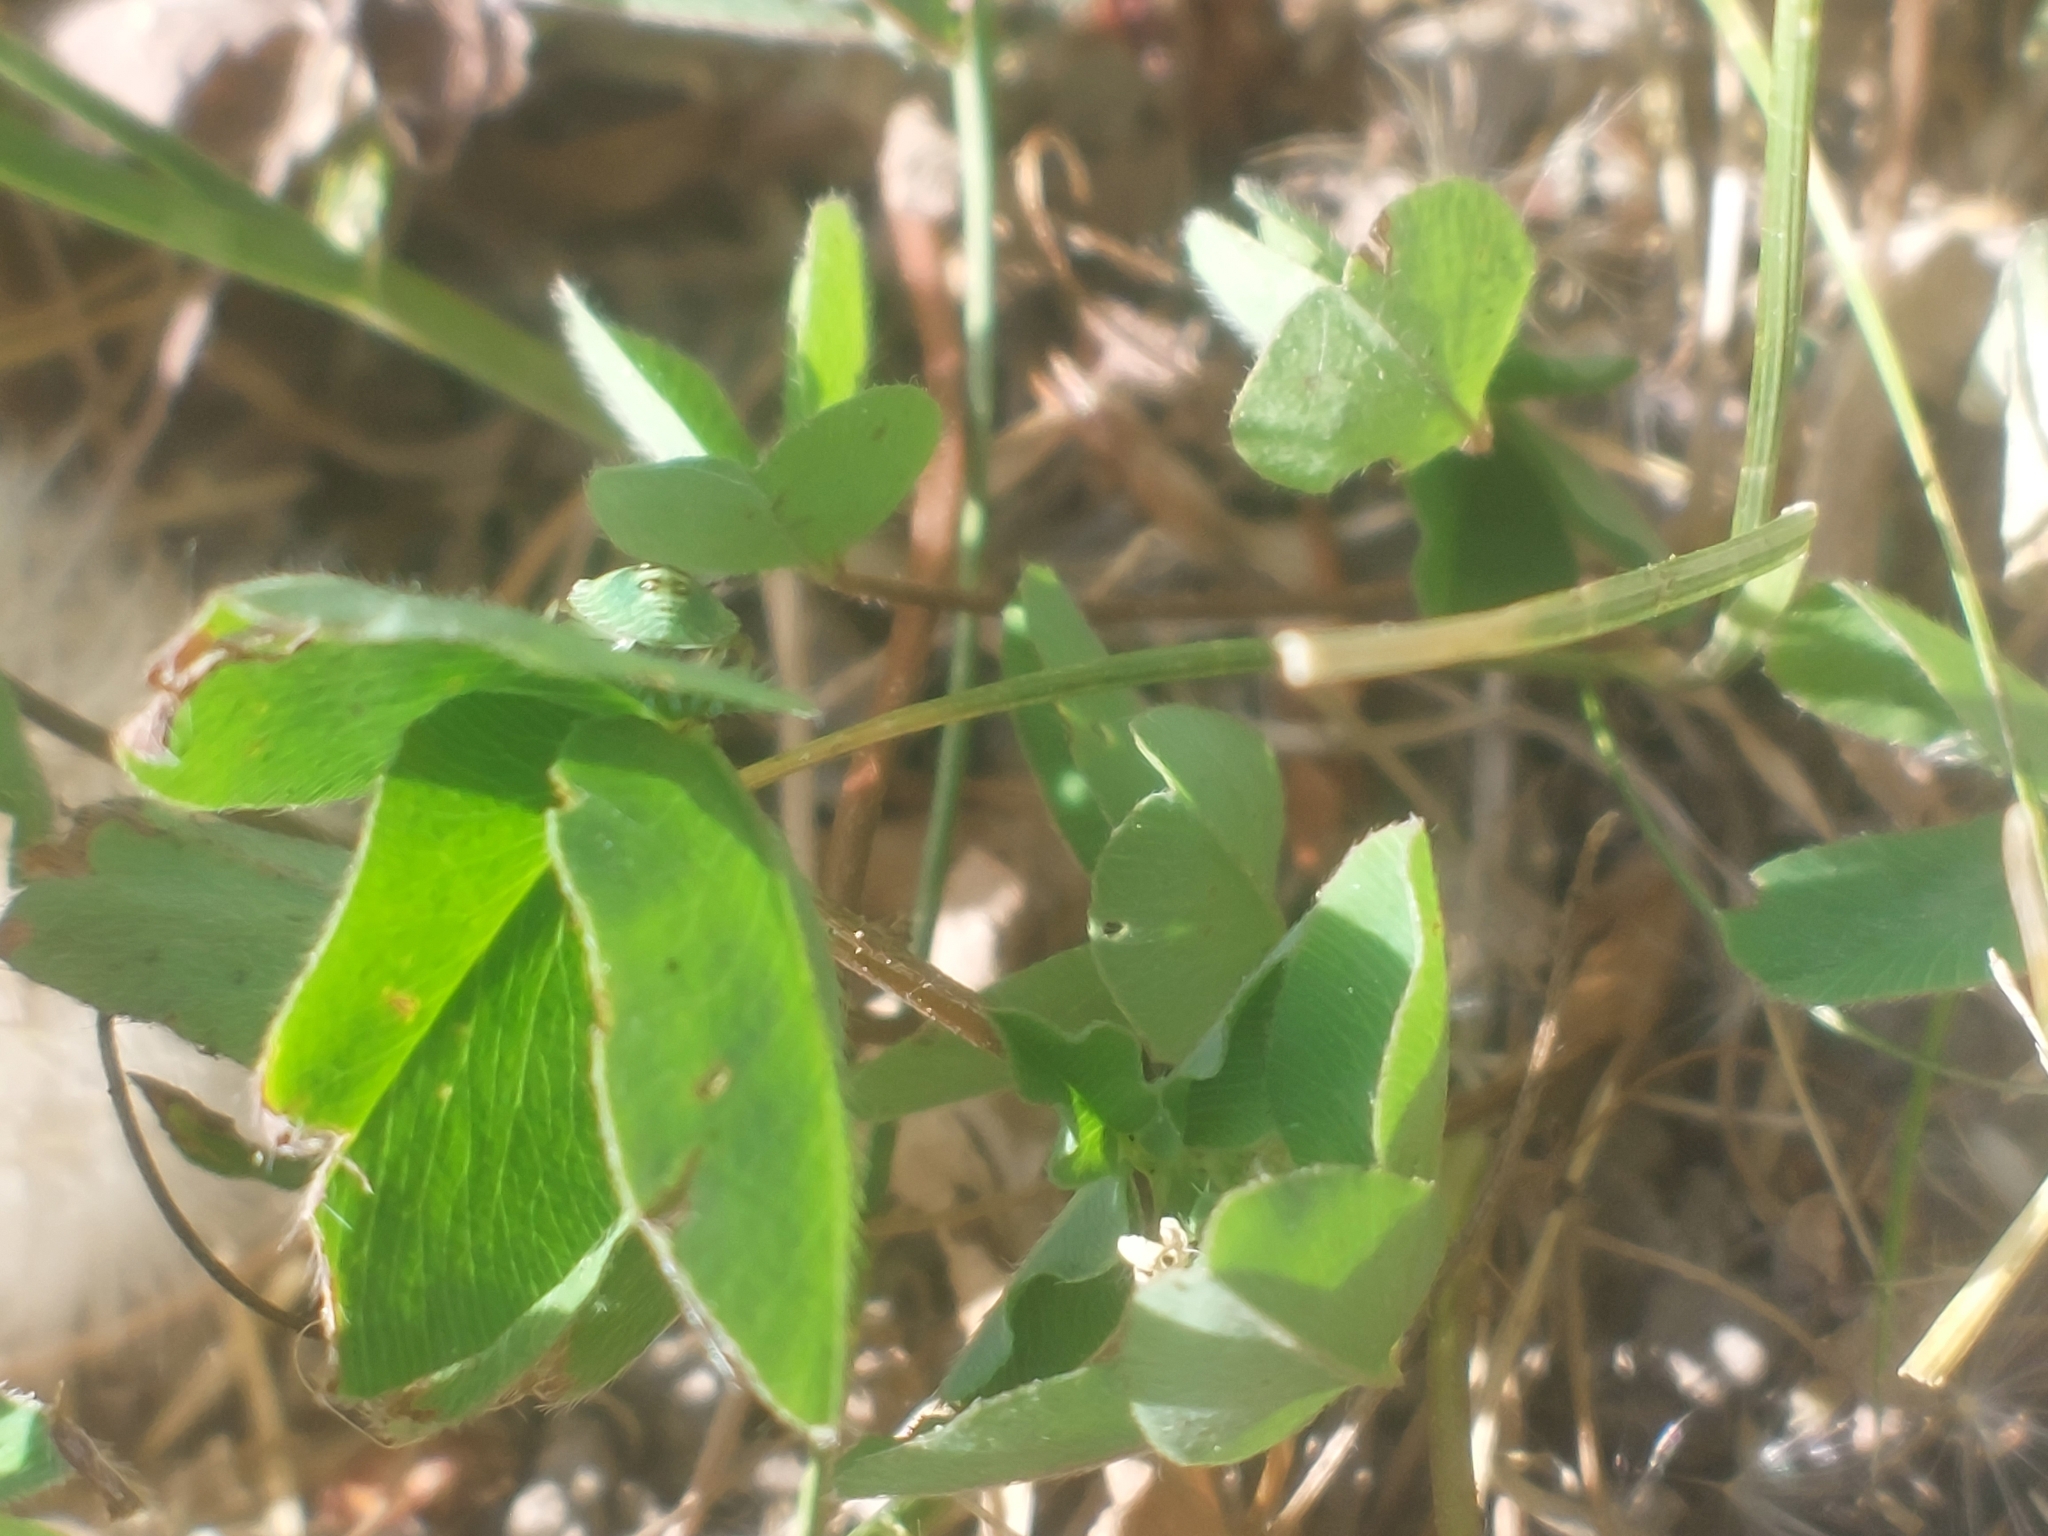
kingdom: Animalia
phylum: Arthropoda
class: Insecta
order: Hemiptera
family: Pentatomidae
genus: Palomena
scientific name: Palomena prasina
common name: Green shieldbug
